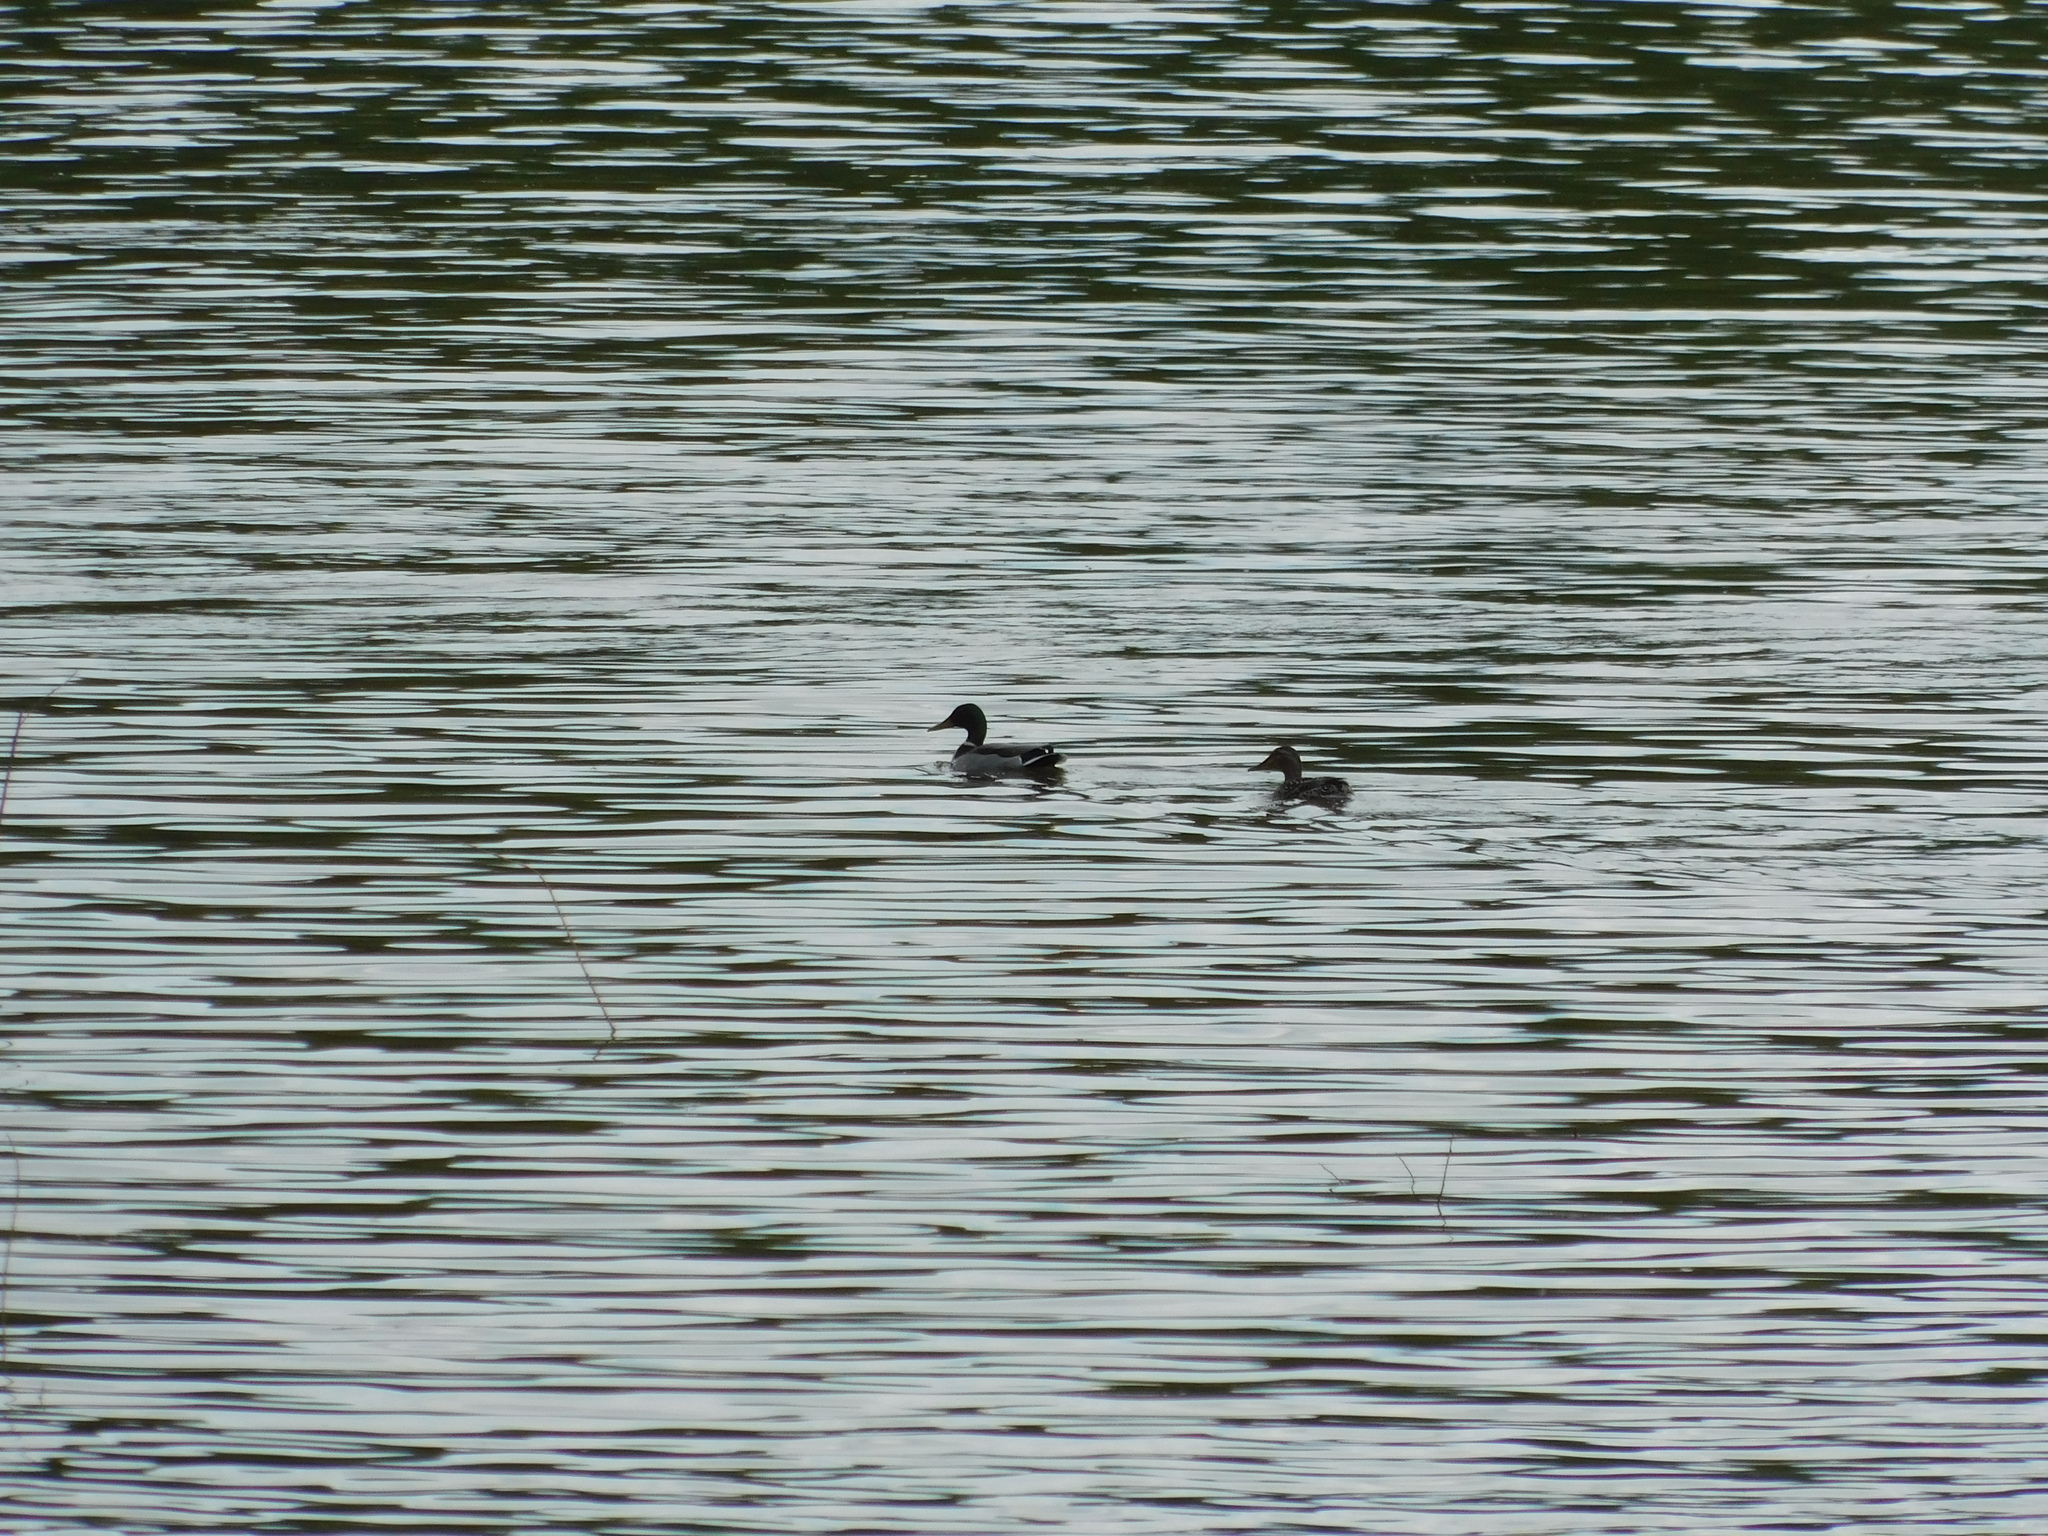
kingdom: Animalia
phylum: Chordata
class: Aves
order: Anseriformes
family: Anatidae
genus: Anas
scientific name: Anas platyrhynchos
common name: Mallard
